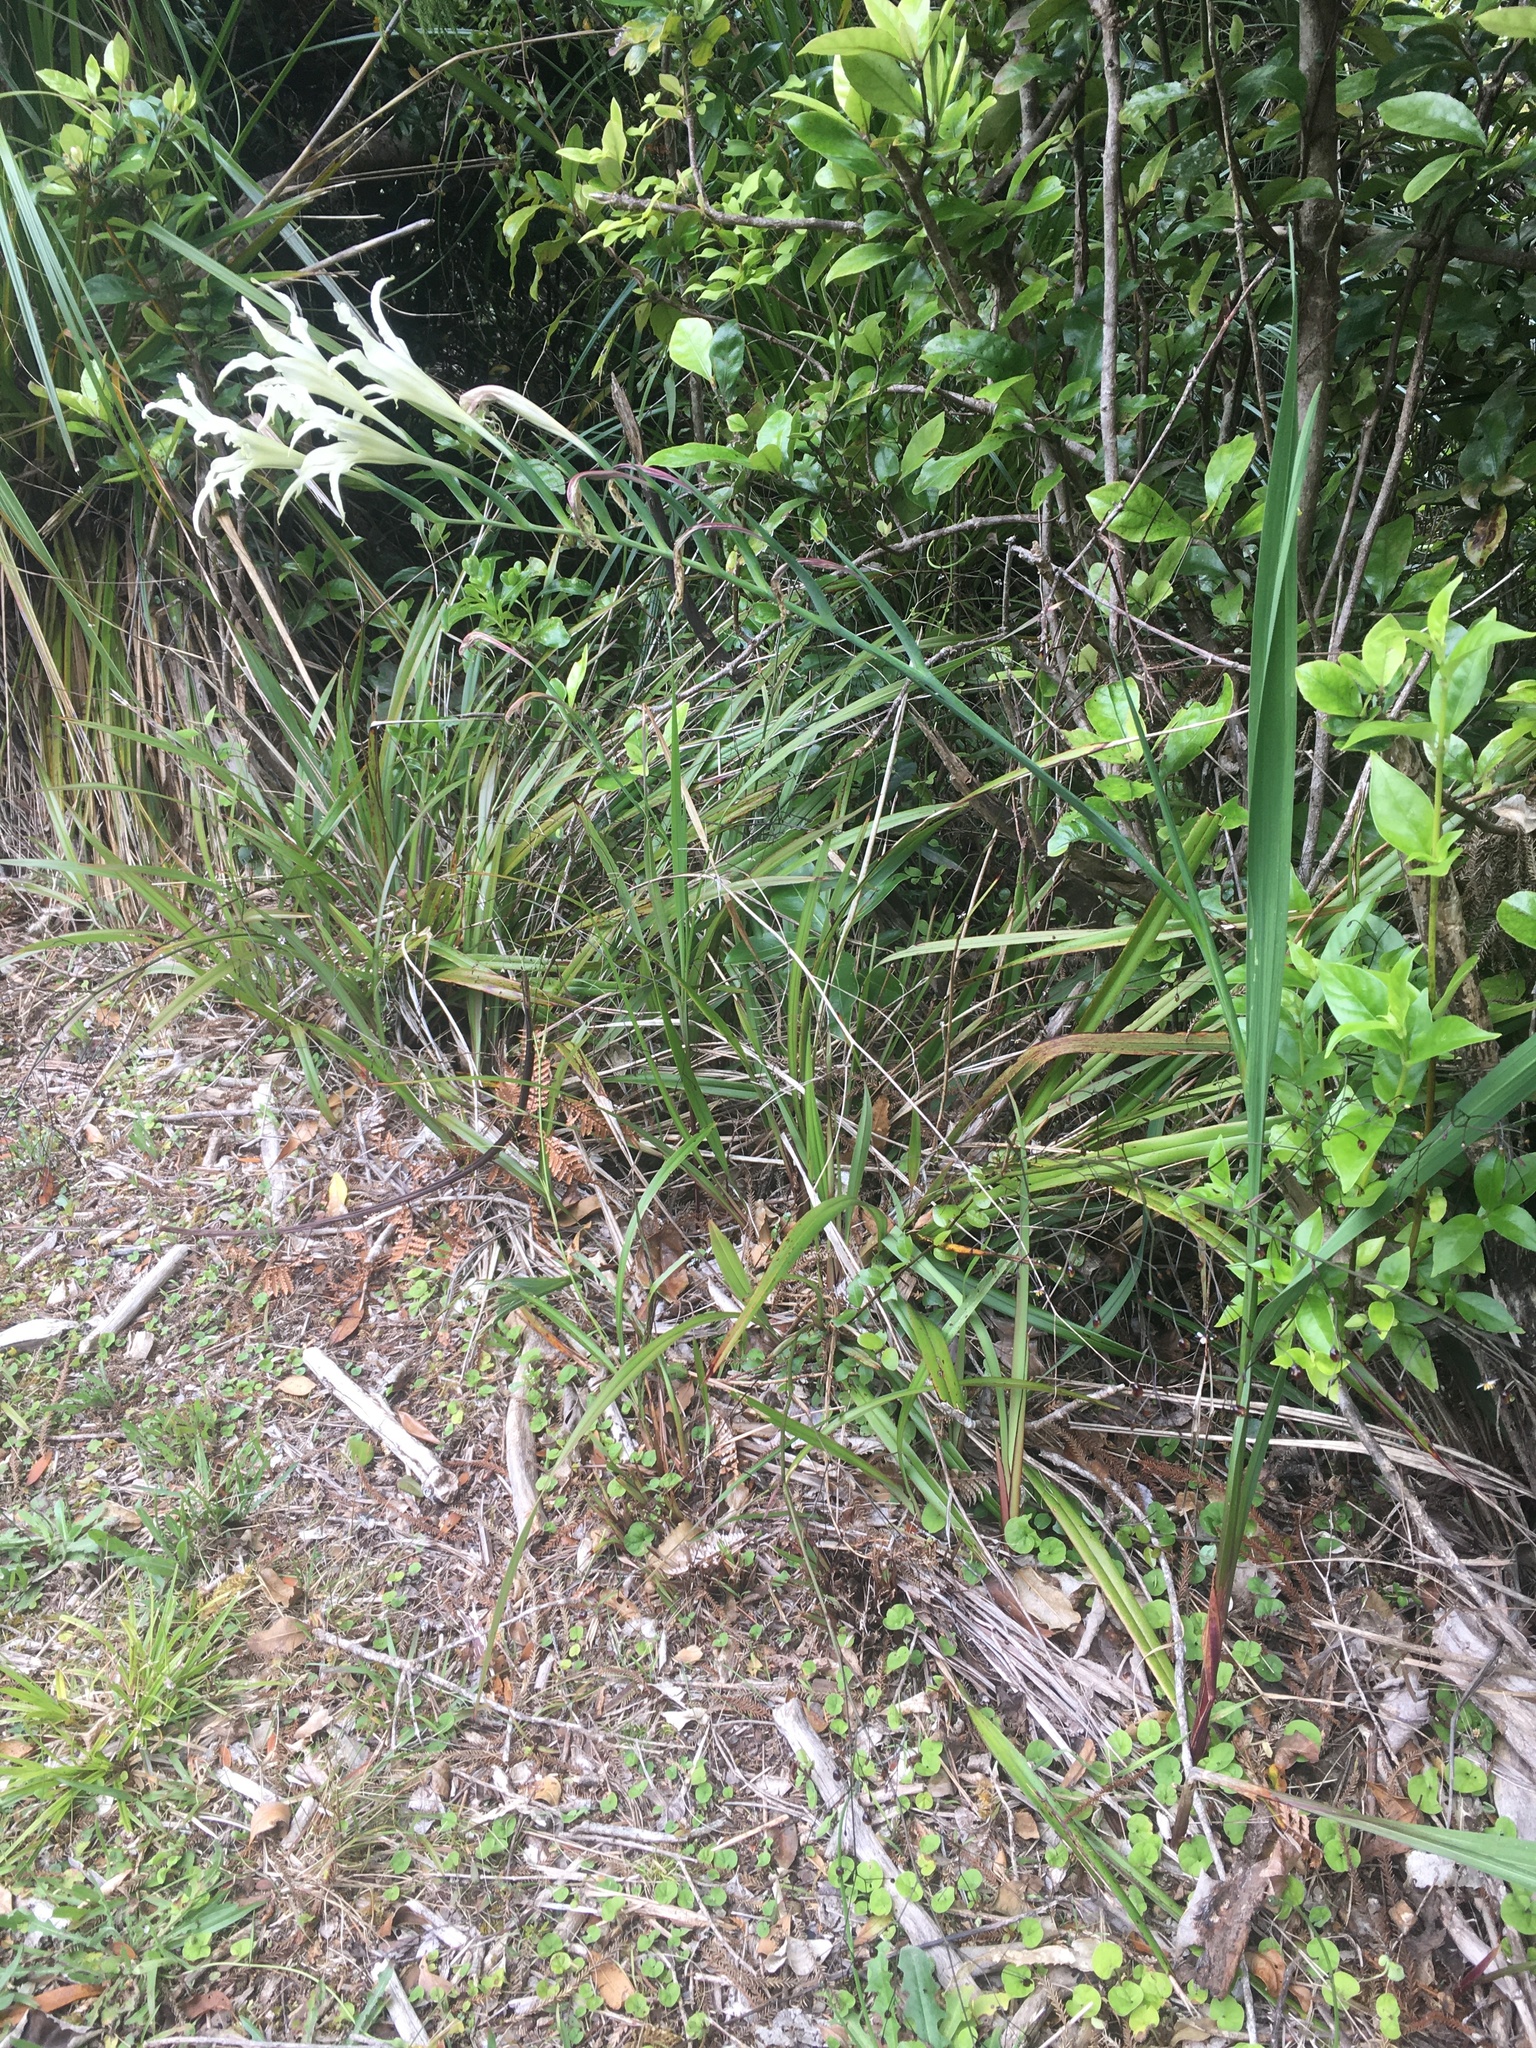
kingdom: Plantae
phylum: Tracheophyta
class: Liliopsida
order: Asparagales
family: Iridaceae
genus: Gladiolus
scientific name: Gladiolus undulatus
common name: Large painted-lady
